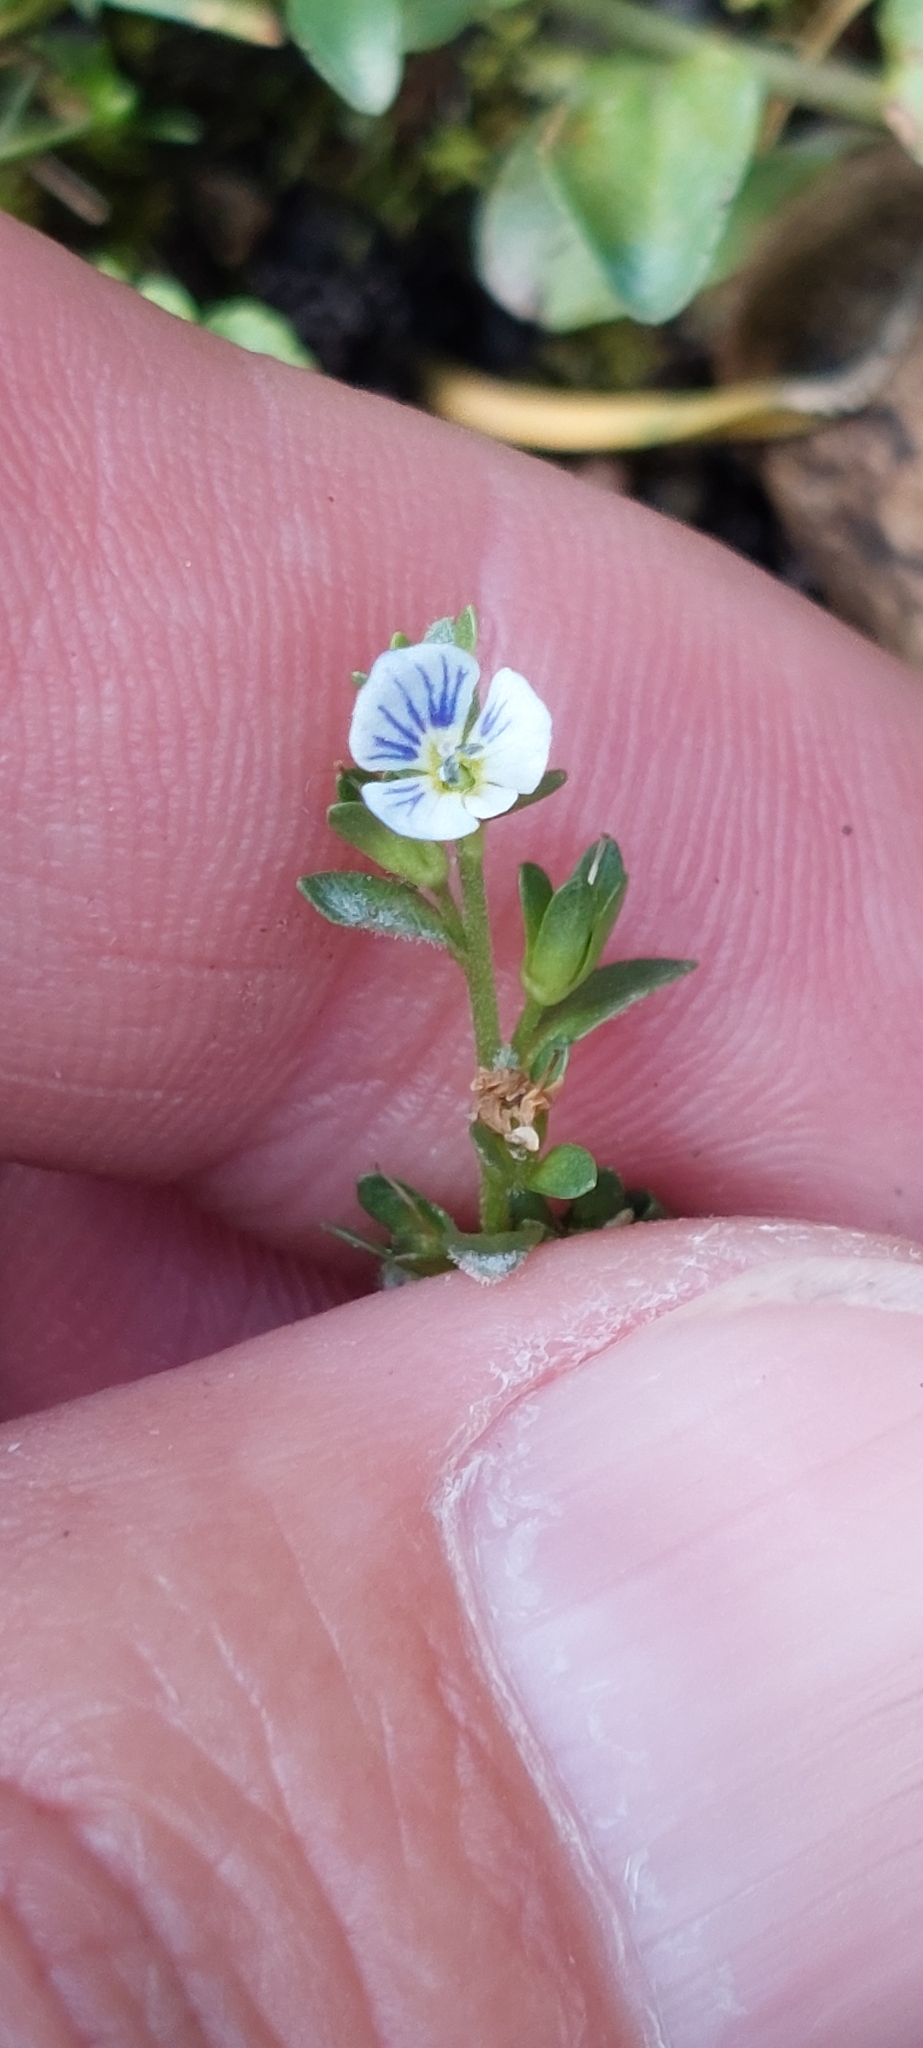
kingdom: Plantae
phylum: Tracheophyta
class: Magnoliopsida
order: Lamiales
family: Plantaginaceae
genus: Veronica
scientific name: Veronica serpyllifolia
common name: Thyme-leaved speedwell
